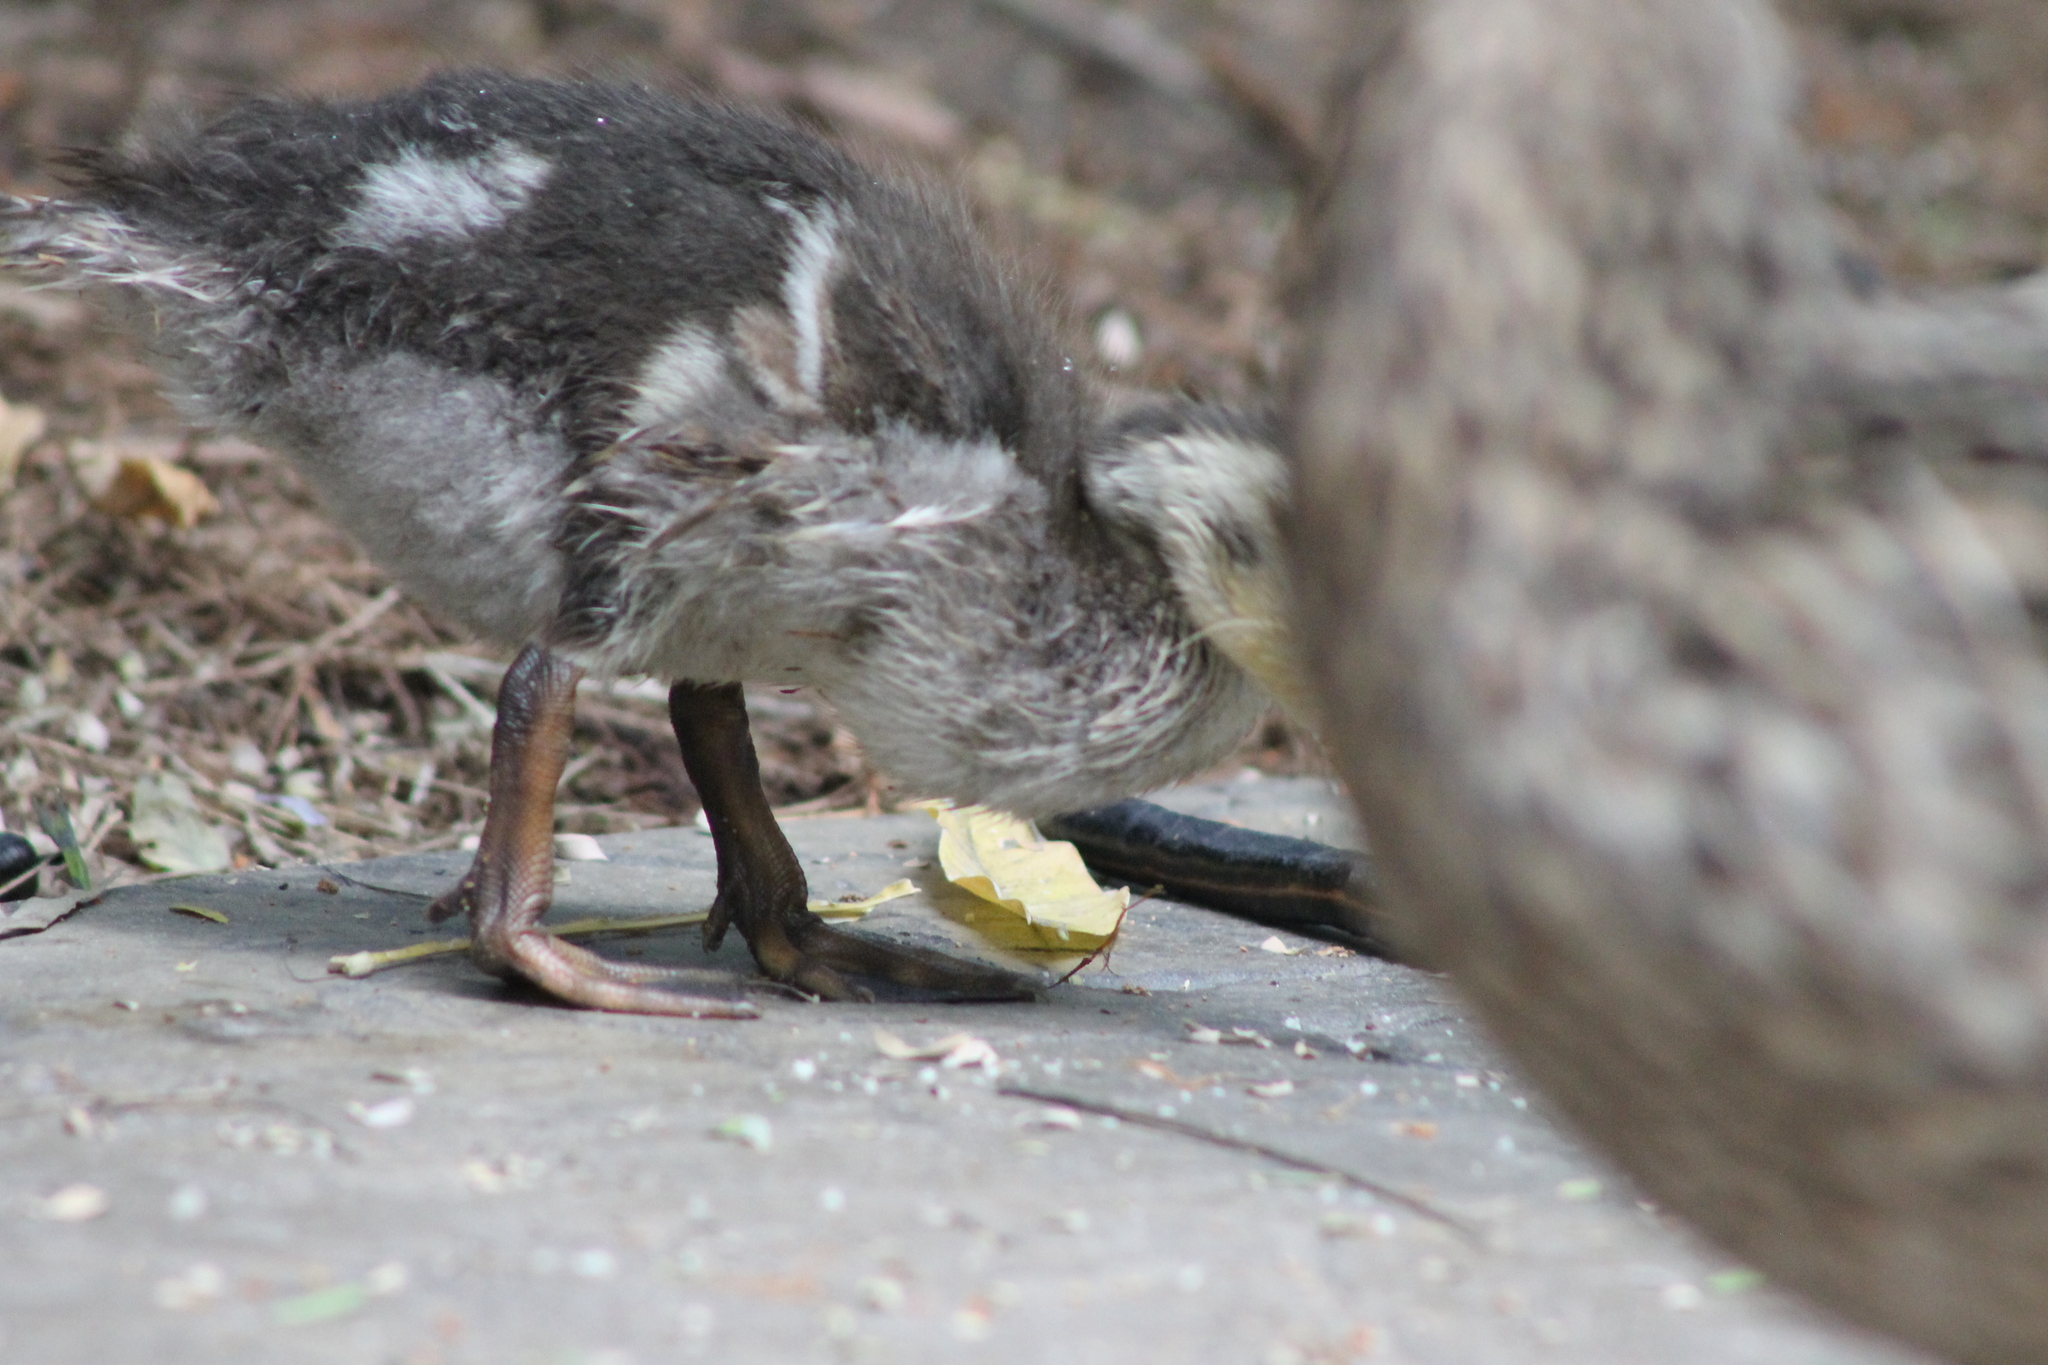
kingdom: Animalia
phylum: Chordata
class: Aves
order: Anseriformes
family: Anatidae
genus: Anas
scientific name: Anas platyrhynchos
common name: Mallard
